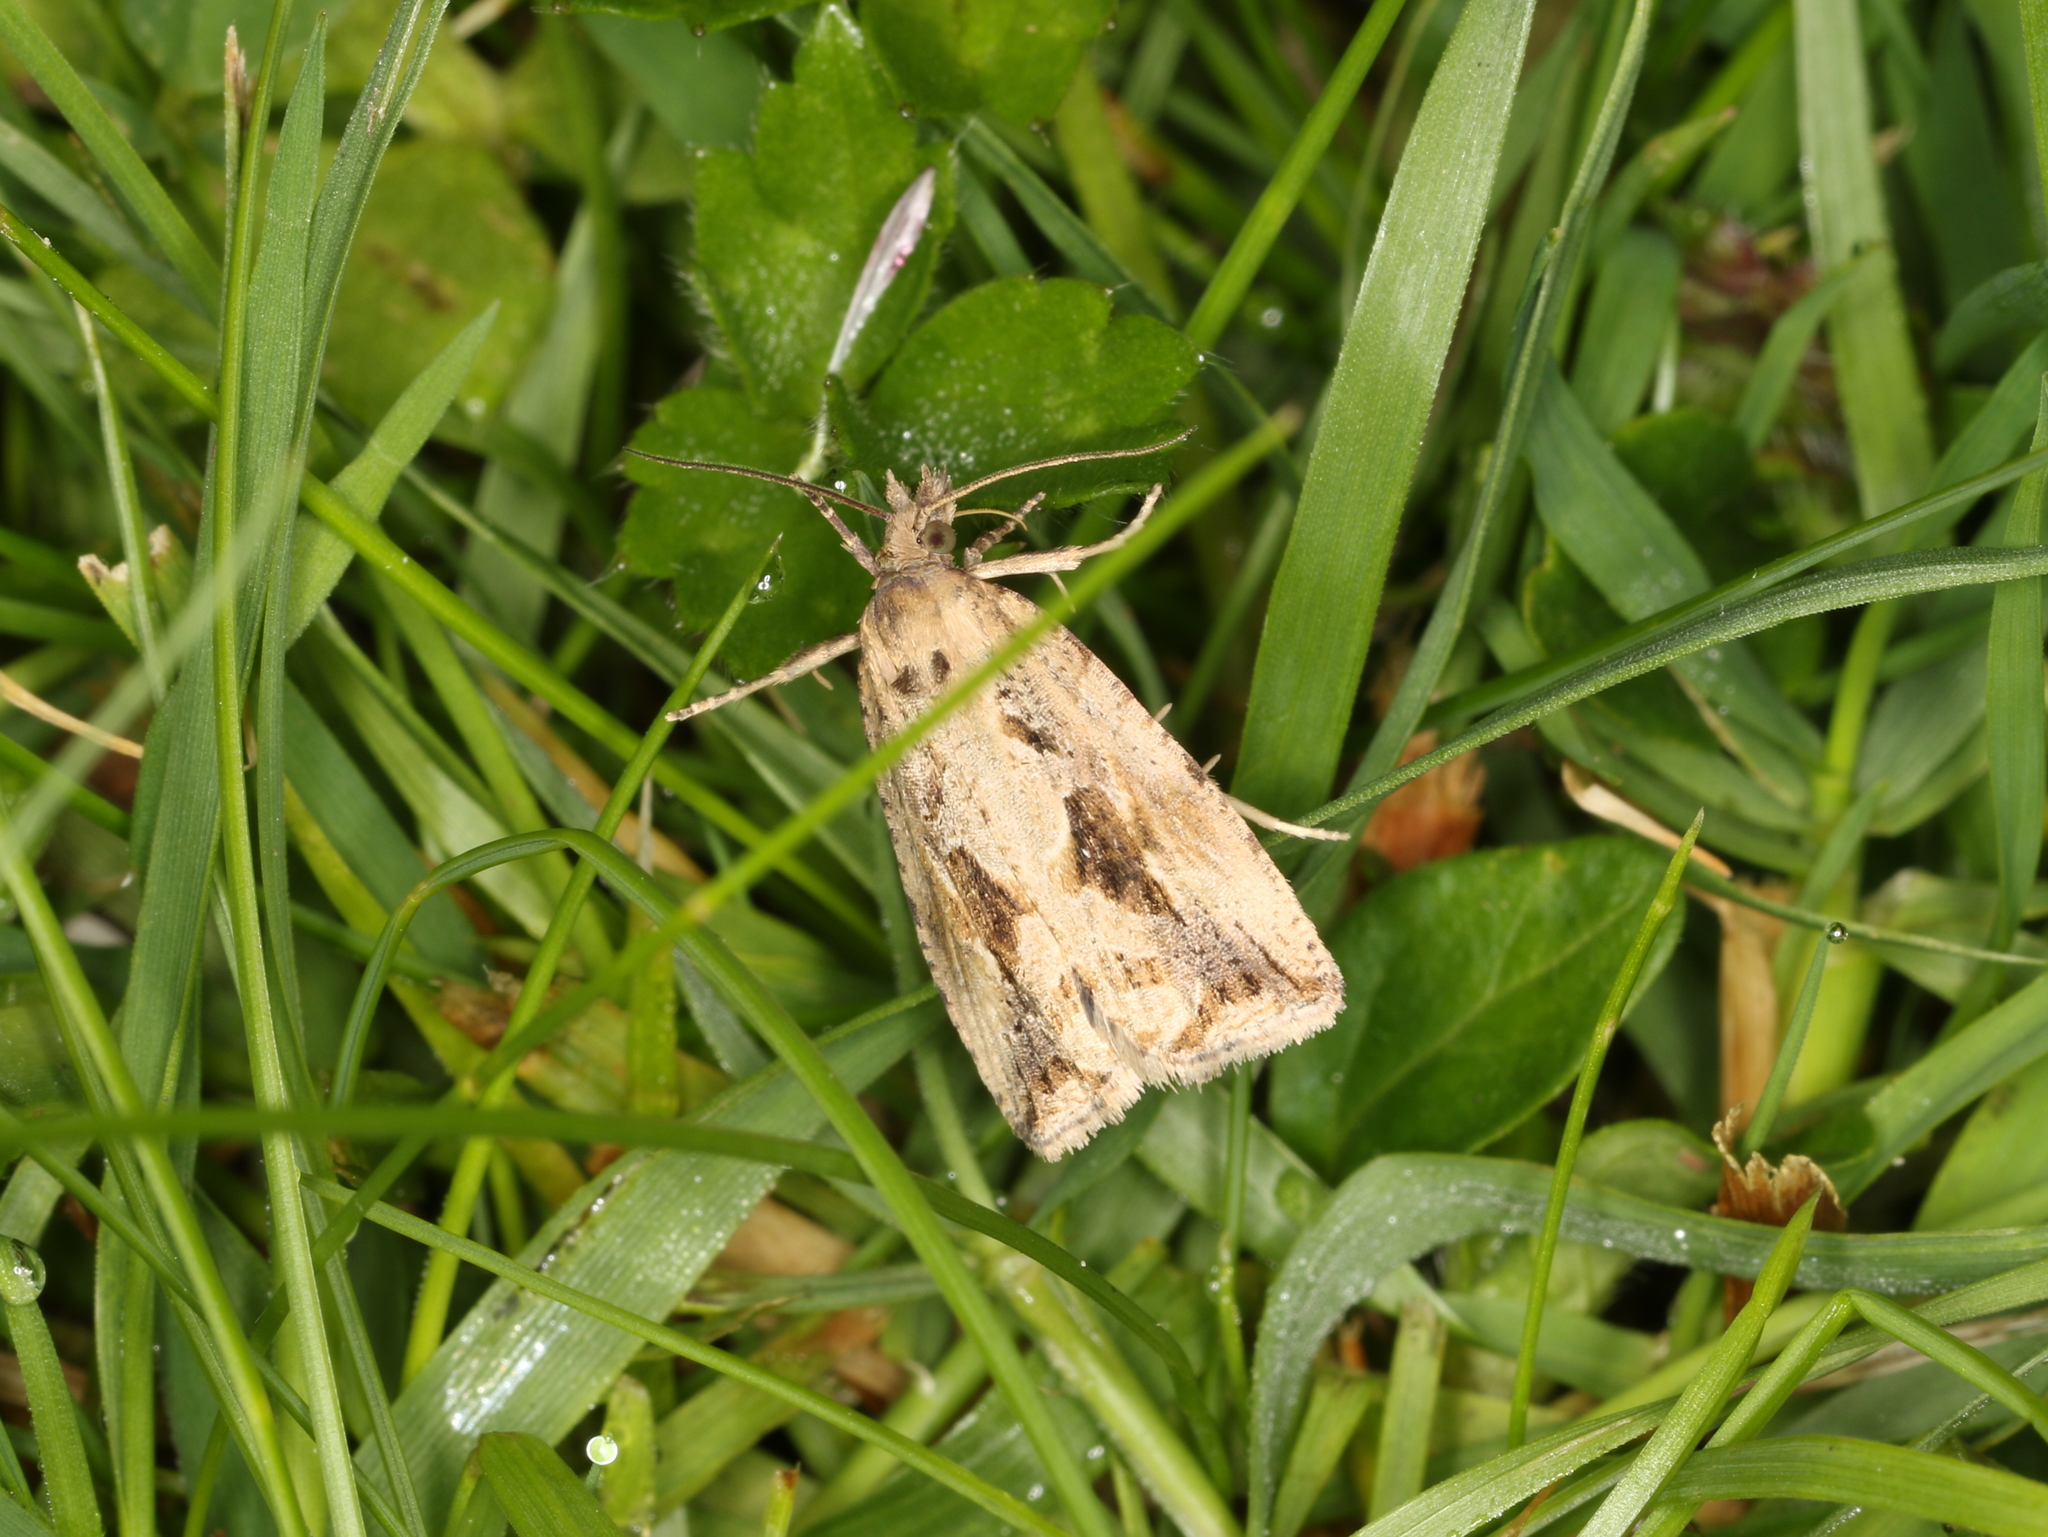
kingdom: Animalia
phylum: Arthropoda
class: Insecta
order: Lepidoptera
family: Tortricidae
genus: Endothenia
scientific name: Endothenia quadrimaculana
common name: Tortricid moth
